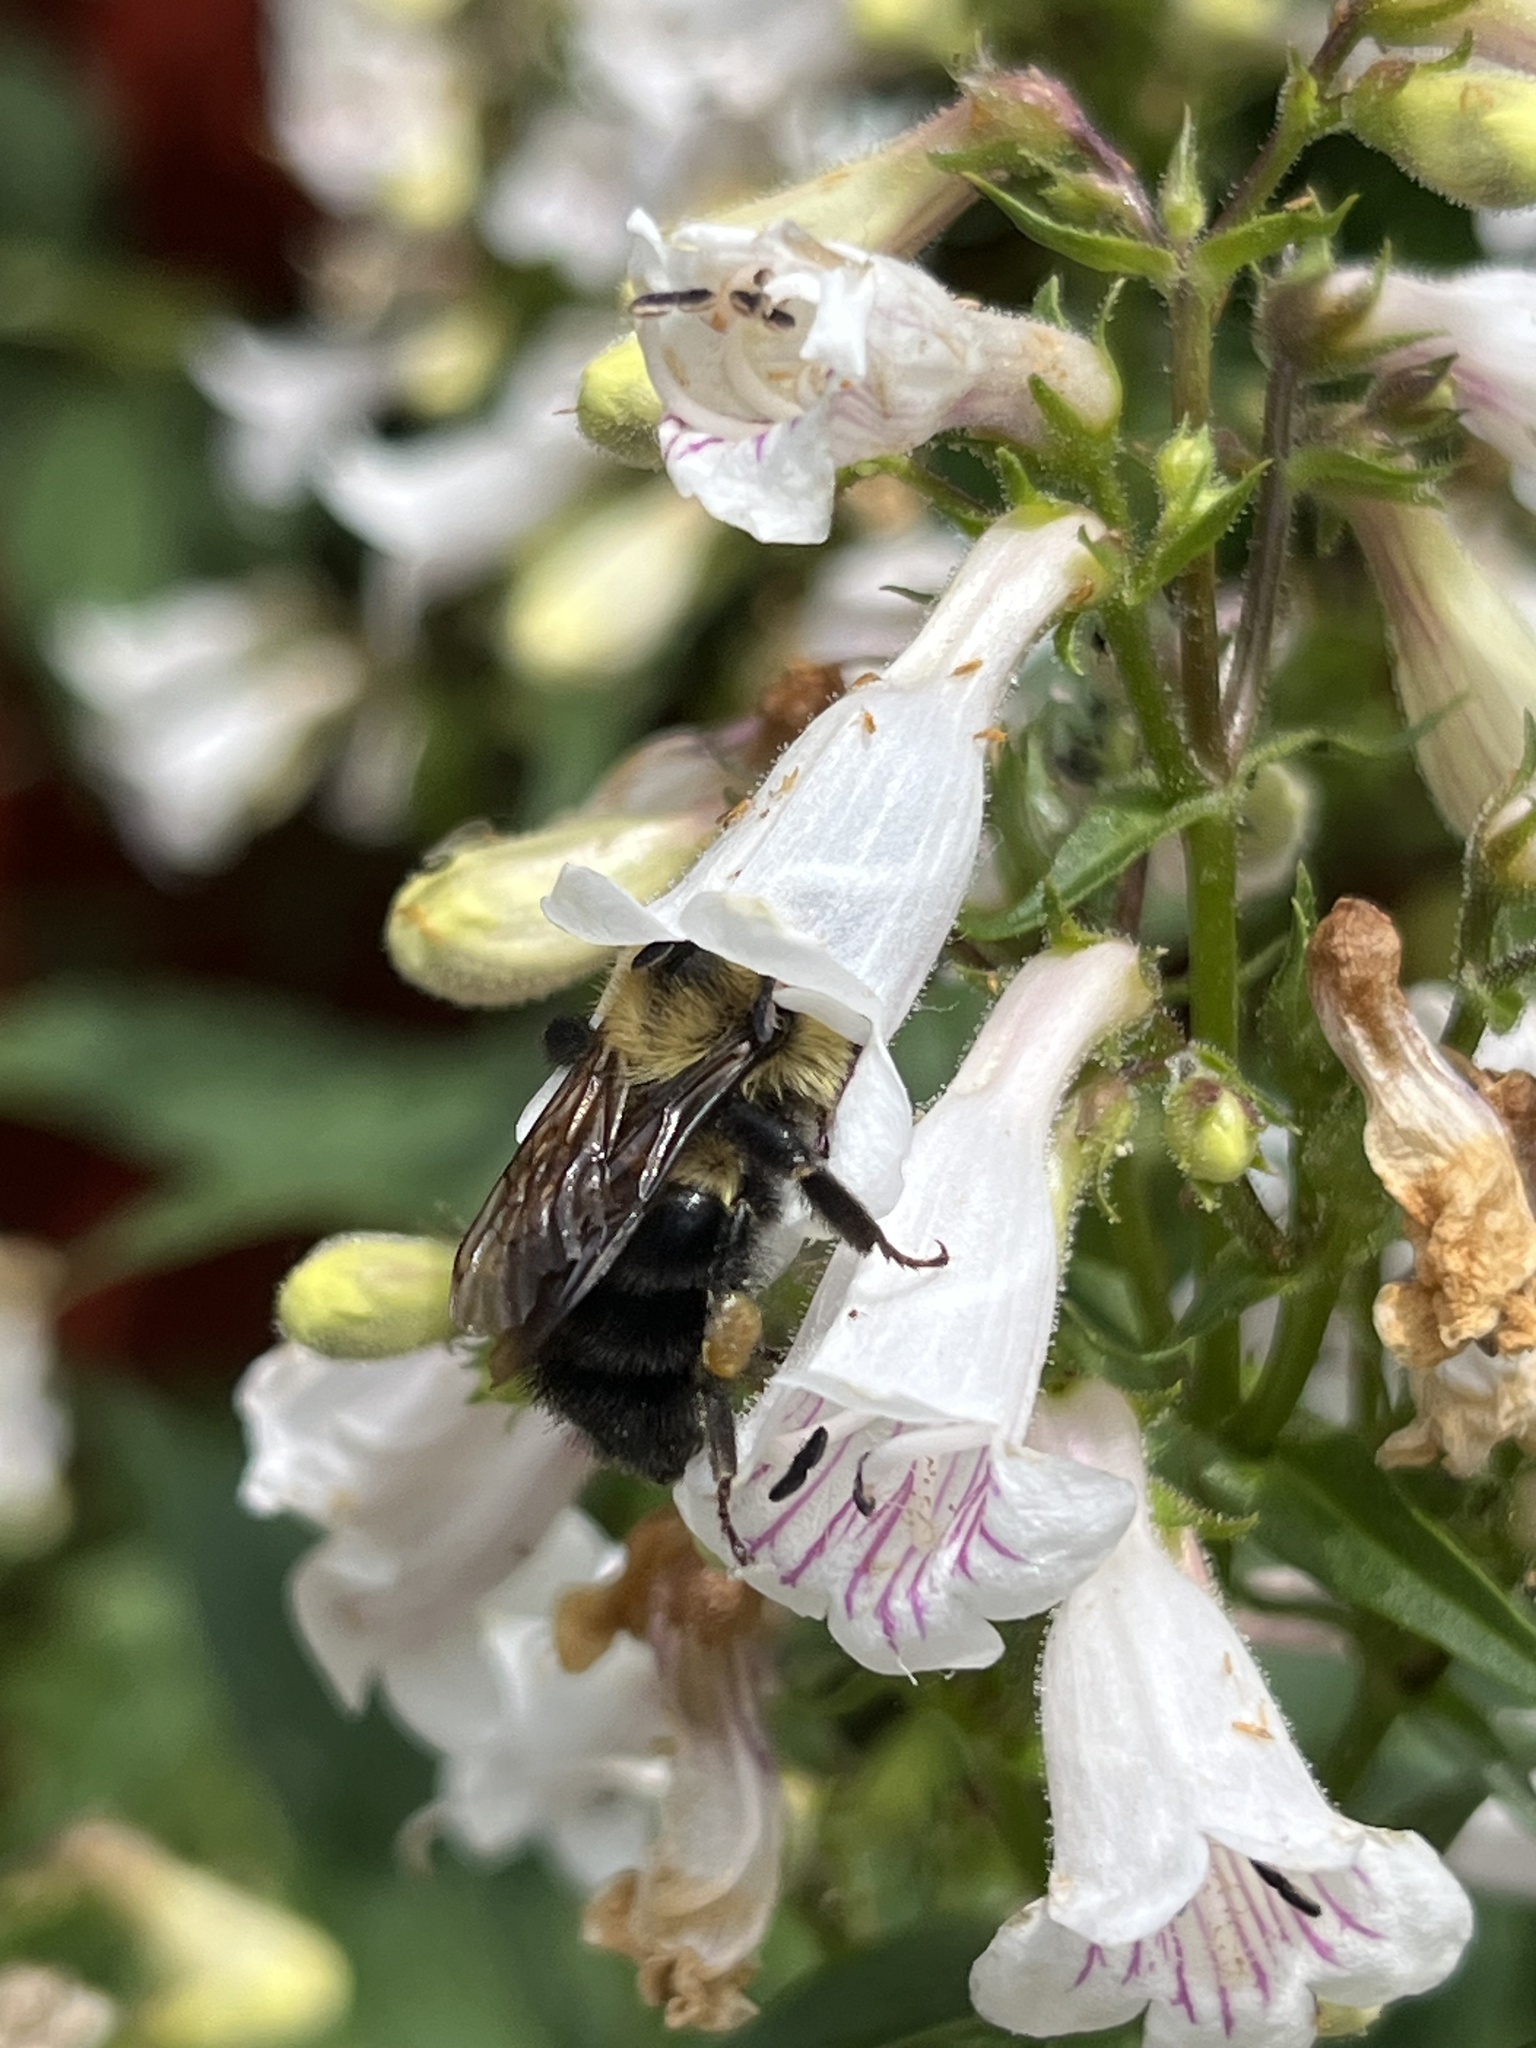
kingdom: Animalia
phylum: Arthropoda
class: Insecta
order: Hymenoptera
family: Apidae
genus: Bombus
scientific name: Bombus bimaculatus
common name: Two-spotted bumble bee
